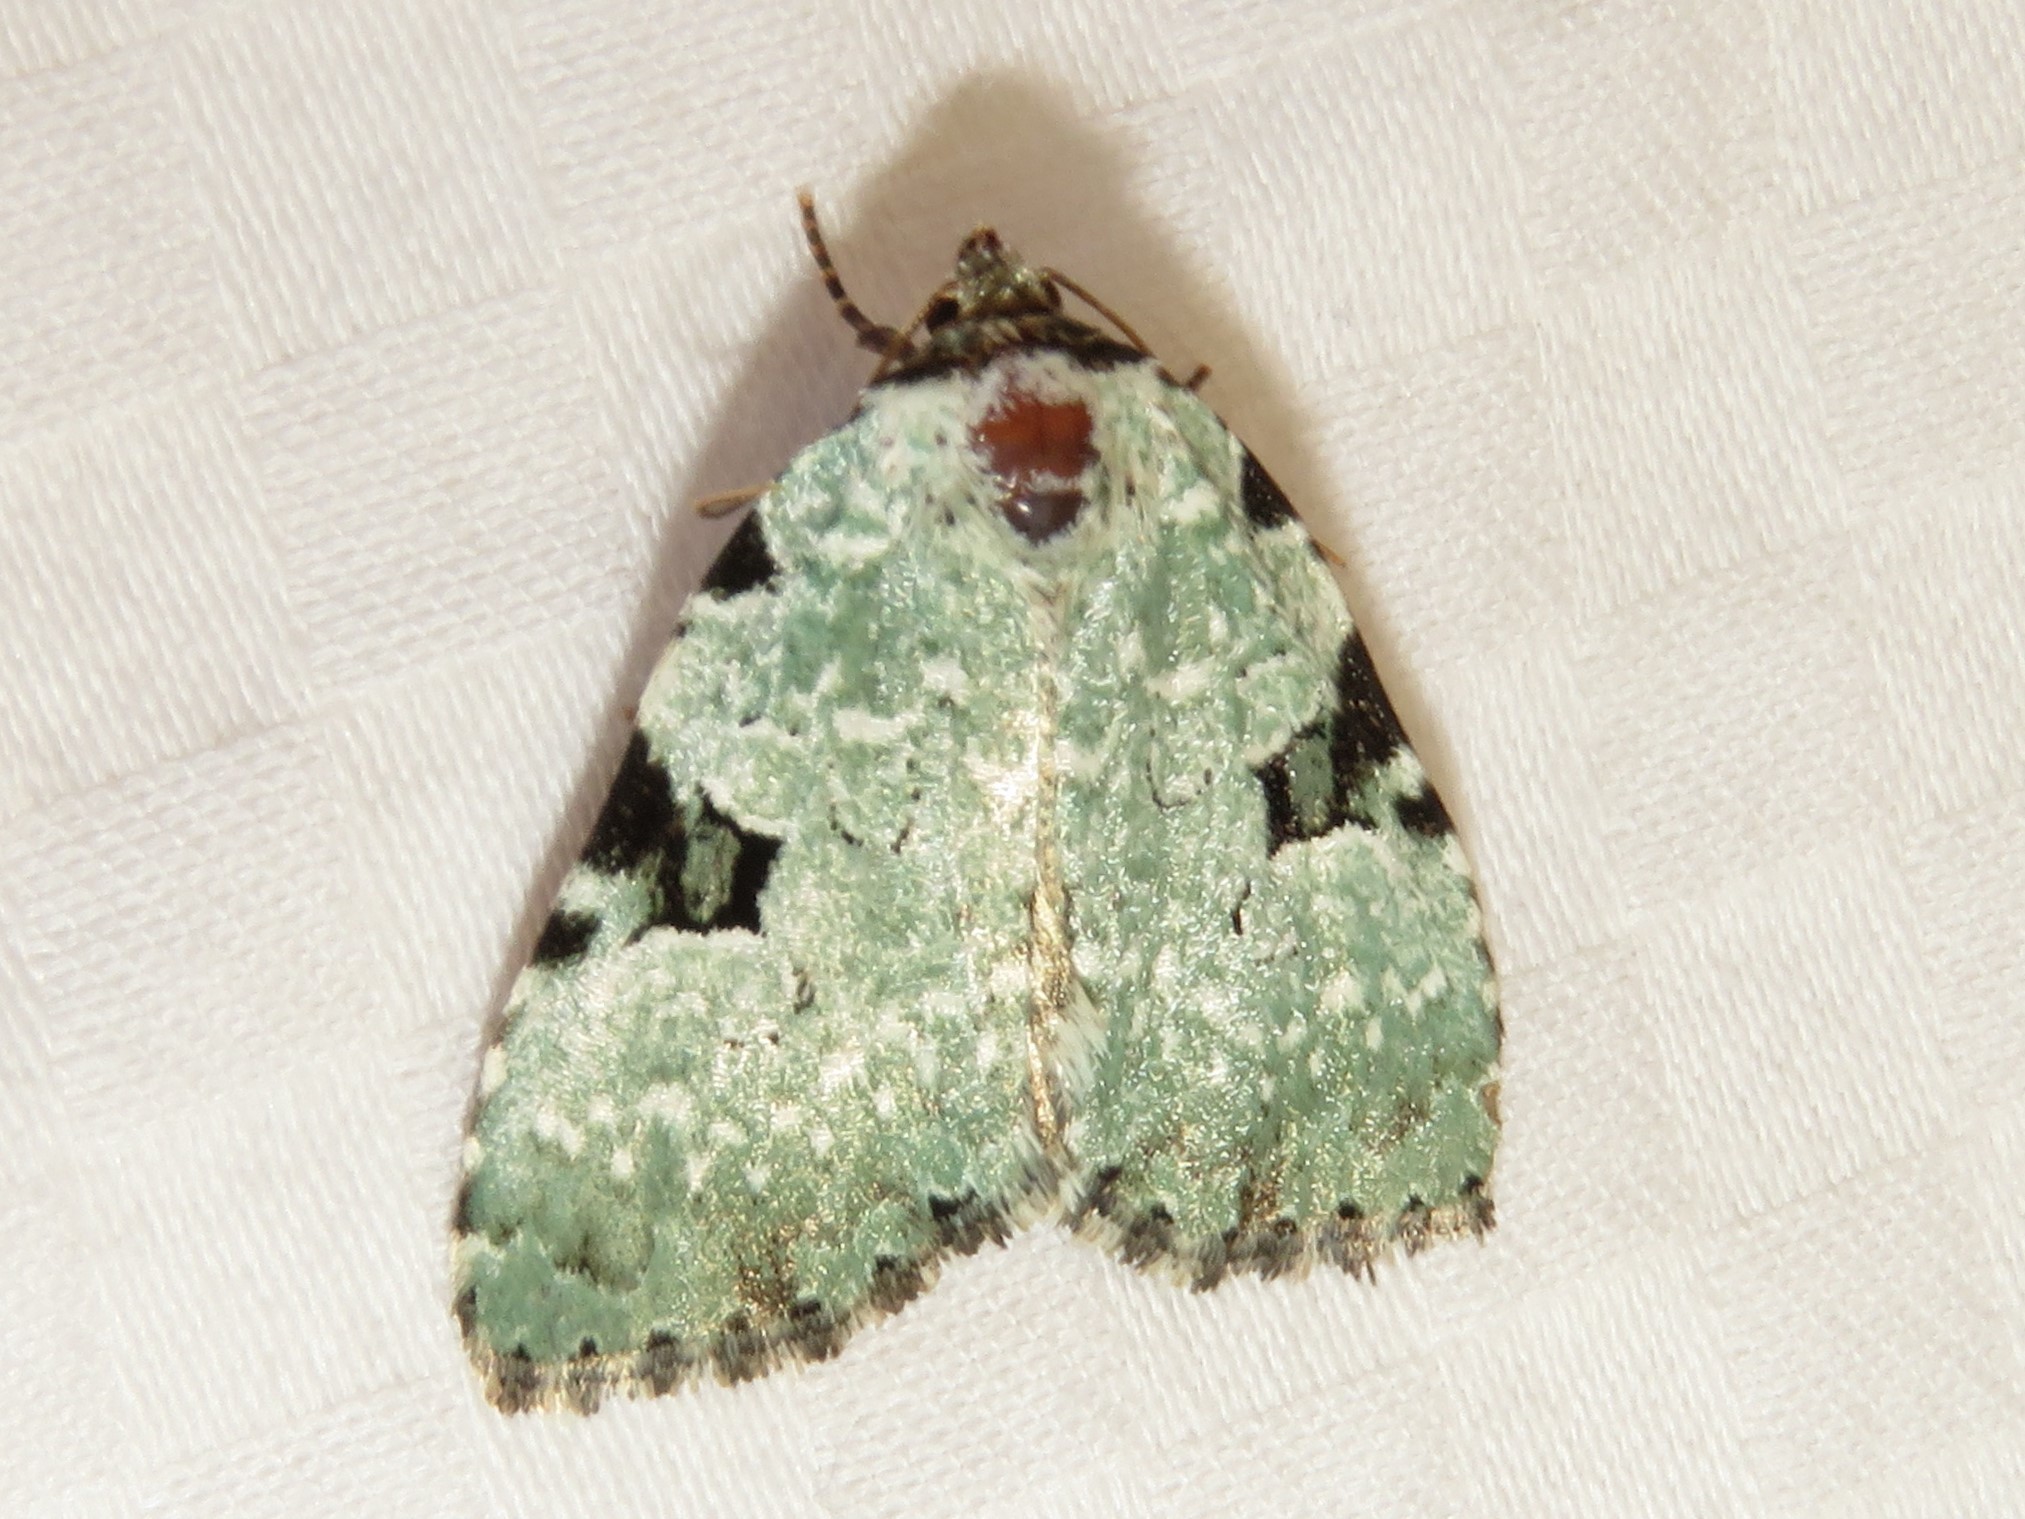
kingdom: Animalia
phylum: Arthropoda
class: Insecta
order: Lepidoptera
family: Noctuidae
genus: Leuconycta
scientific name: Leuconycta diphteroides
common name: Green leuconycta moth
